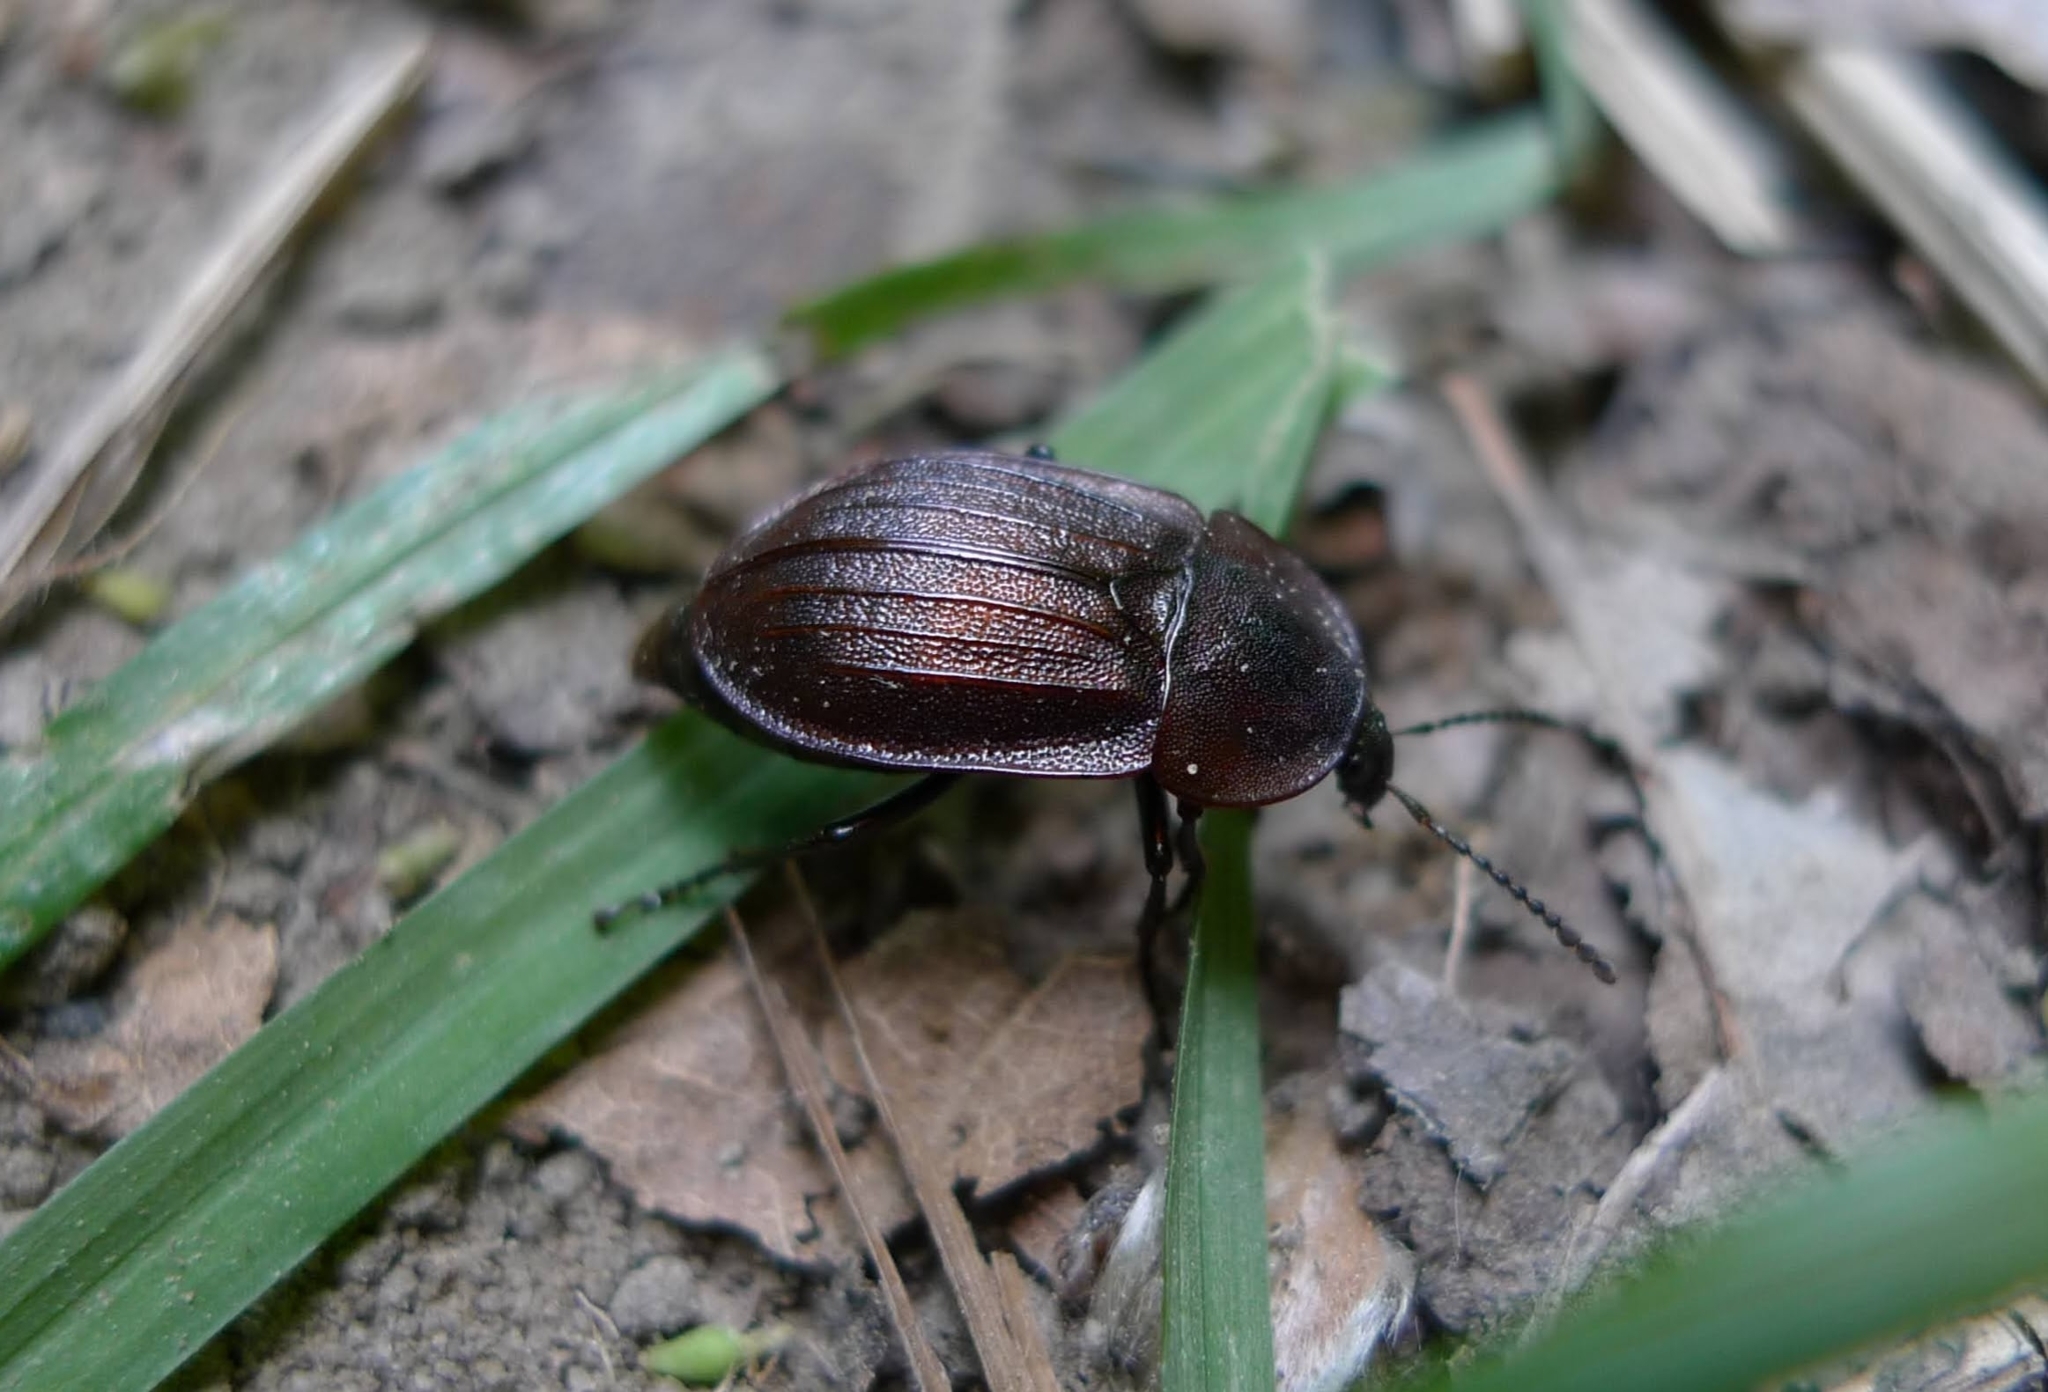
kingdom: Animalia
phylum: Arthropoda
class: Insecta
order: Coleoptera
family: Staphylinidae
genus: Silpha
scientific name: Silpha atrata
